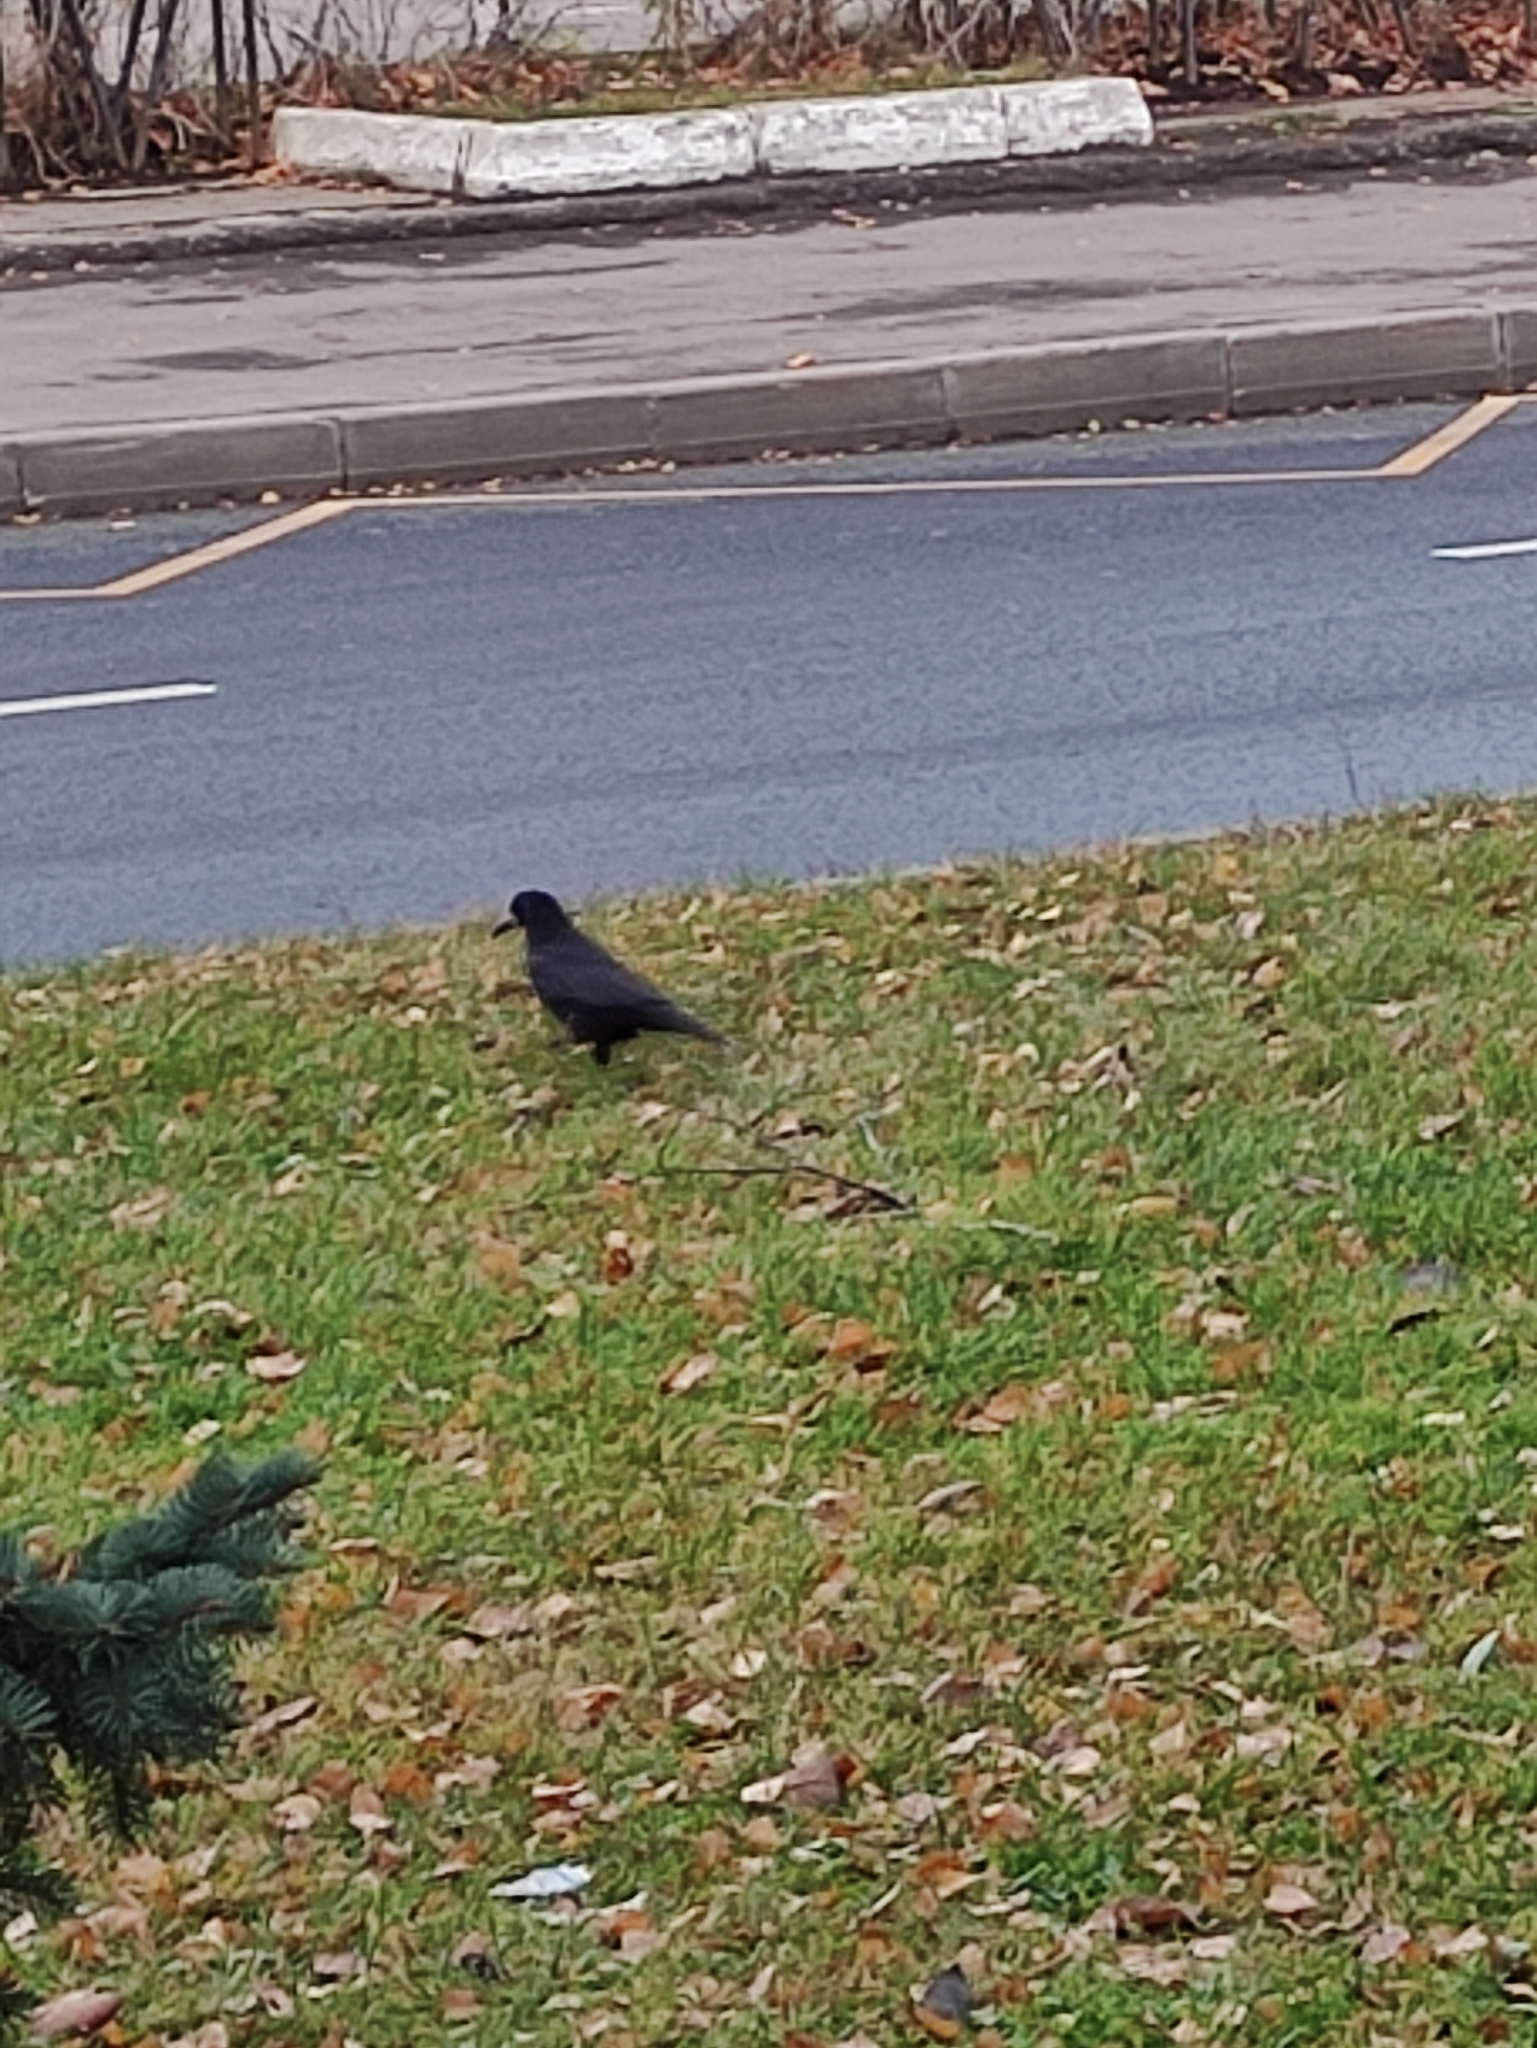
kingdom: Animalia
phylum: Chordata
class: Aves
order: Passeriformes
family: Corvidae
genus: Corvus
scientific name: Corvus frugilegus
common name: Rook
